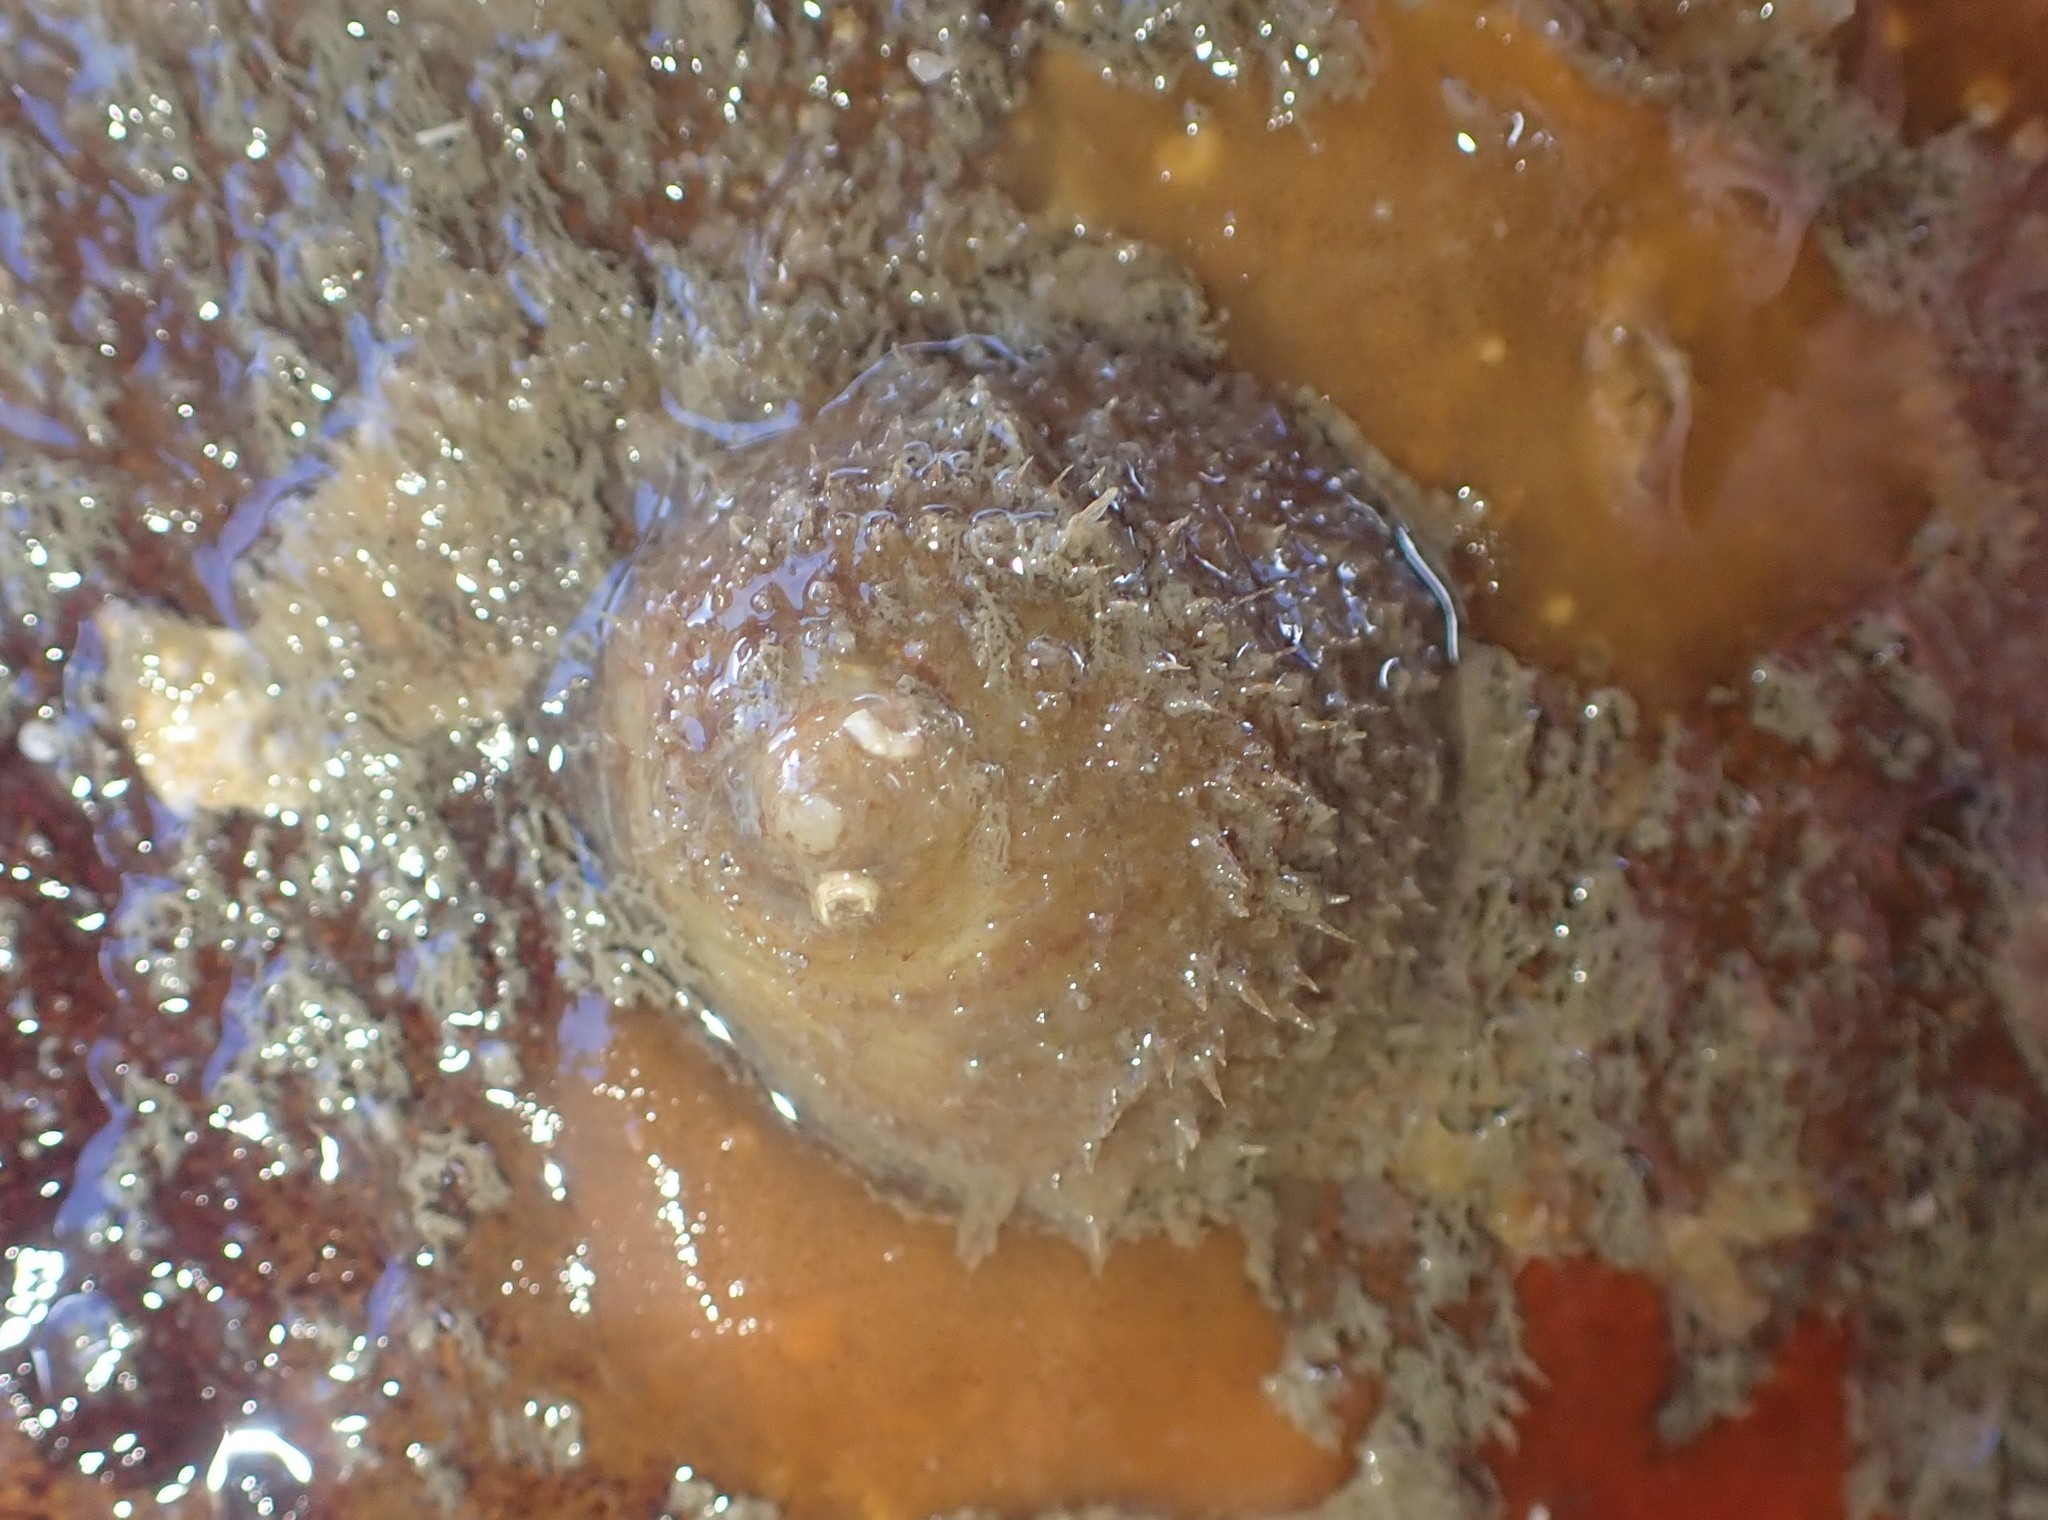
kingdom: Animalia
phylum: Mollusca
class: Gastropoda
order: Littorinimorpha
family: Calyptraeidae
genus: Sigapatella
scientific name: Sigapatella novaezelandiae
